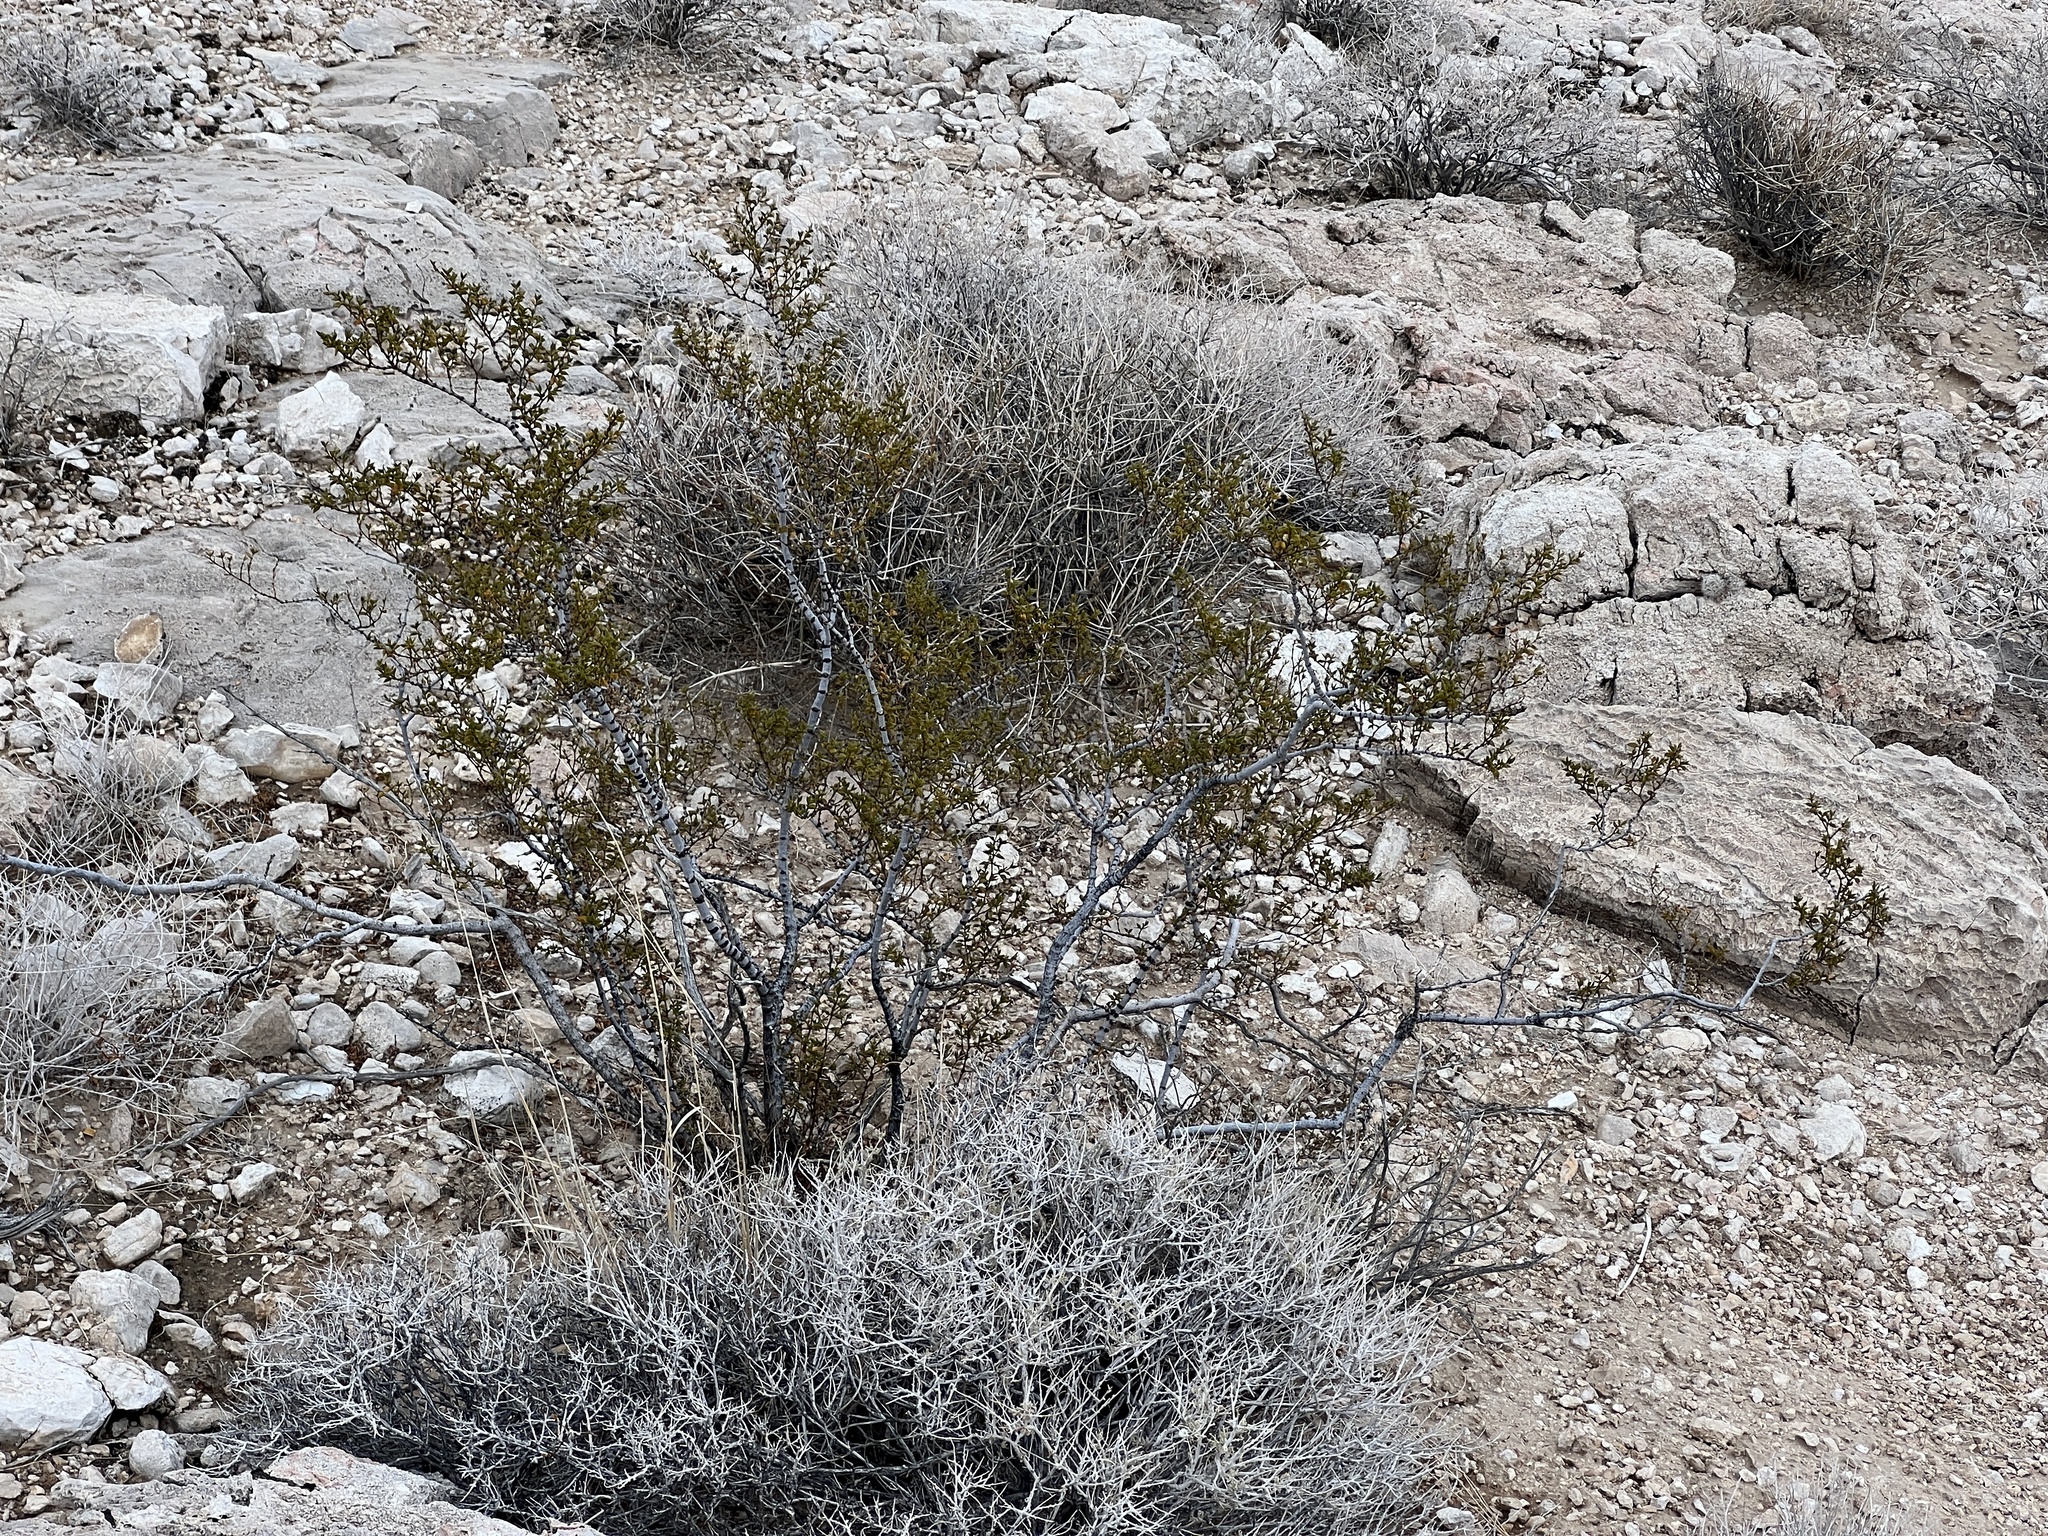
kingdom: Plantae
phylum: Tracheophyta
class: Magnoliopsida
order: Zygophyllales
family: Zygophyllaceae
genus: Larrea
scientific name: Larrea tridentata
